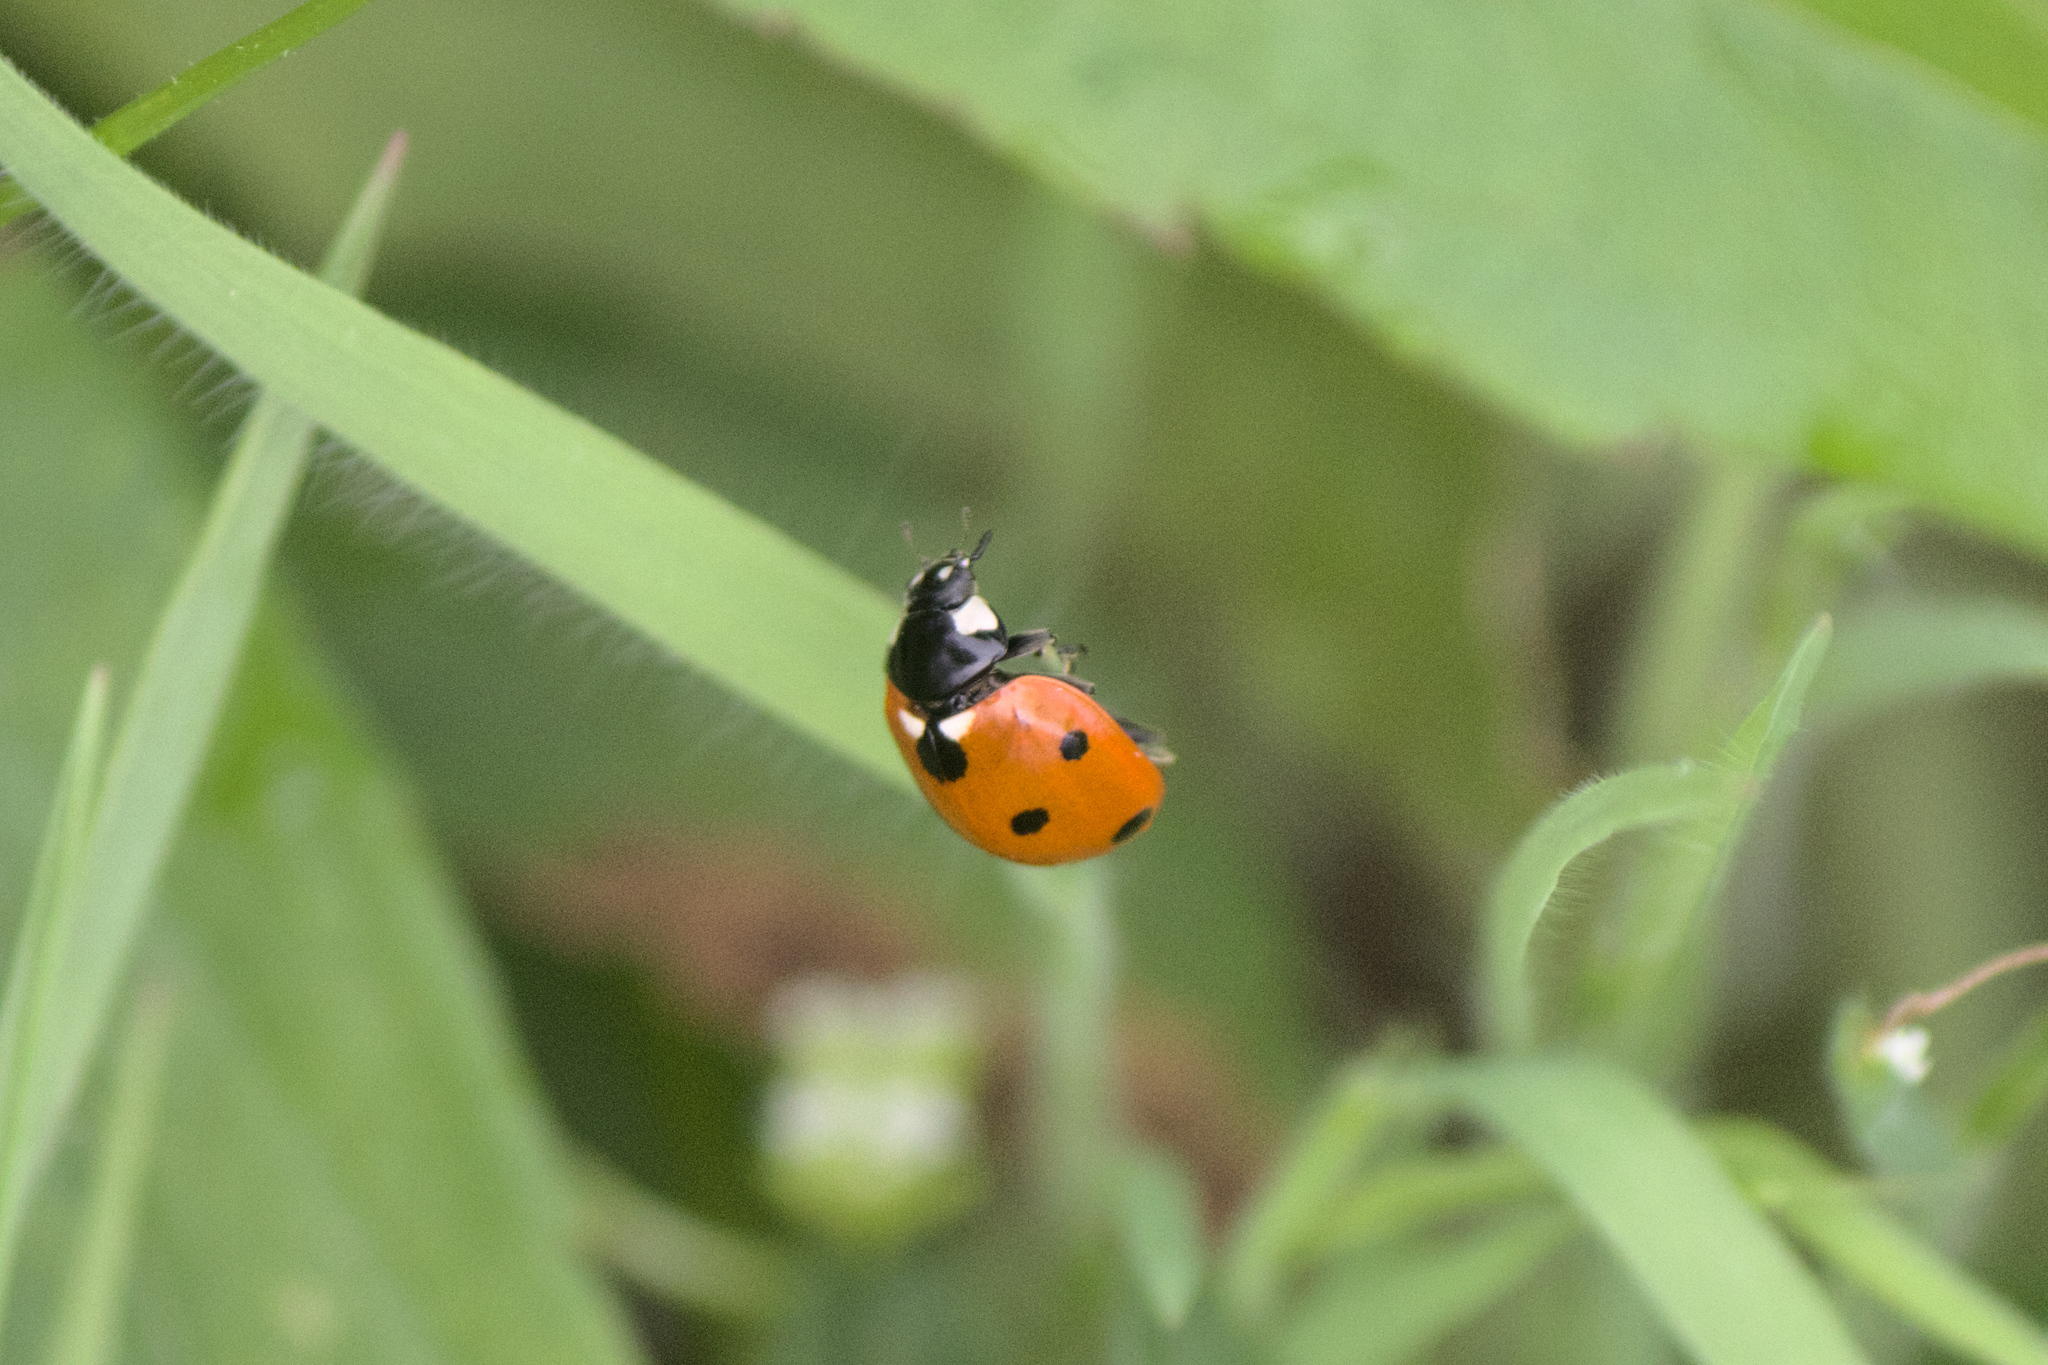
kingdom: Animalia
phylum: Arthropoda
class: Insecta
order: Coleoptera
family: Coccinellidae
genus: Coccinella
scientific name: Coccinella septempunctata
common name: Sevenspotted lady beetle
